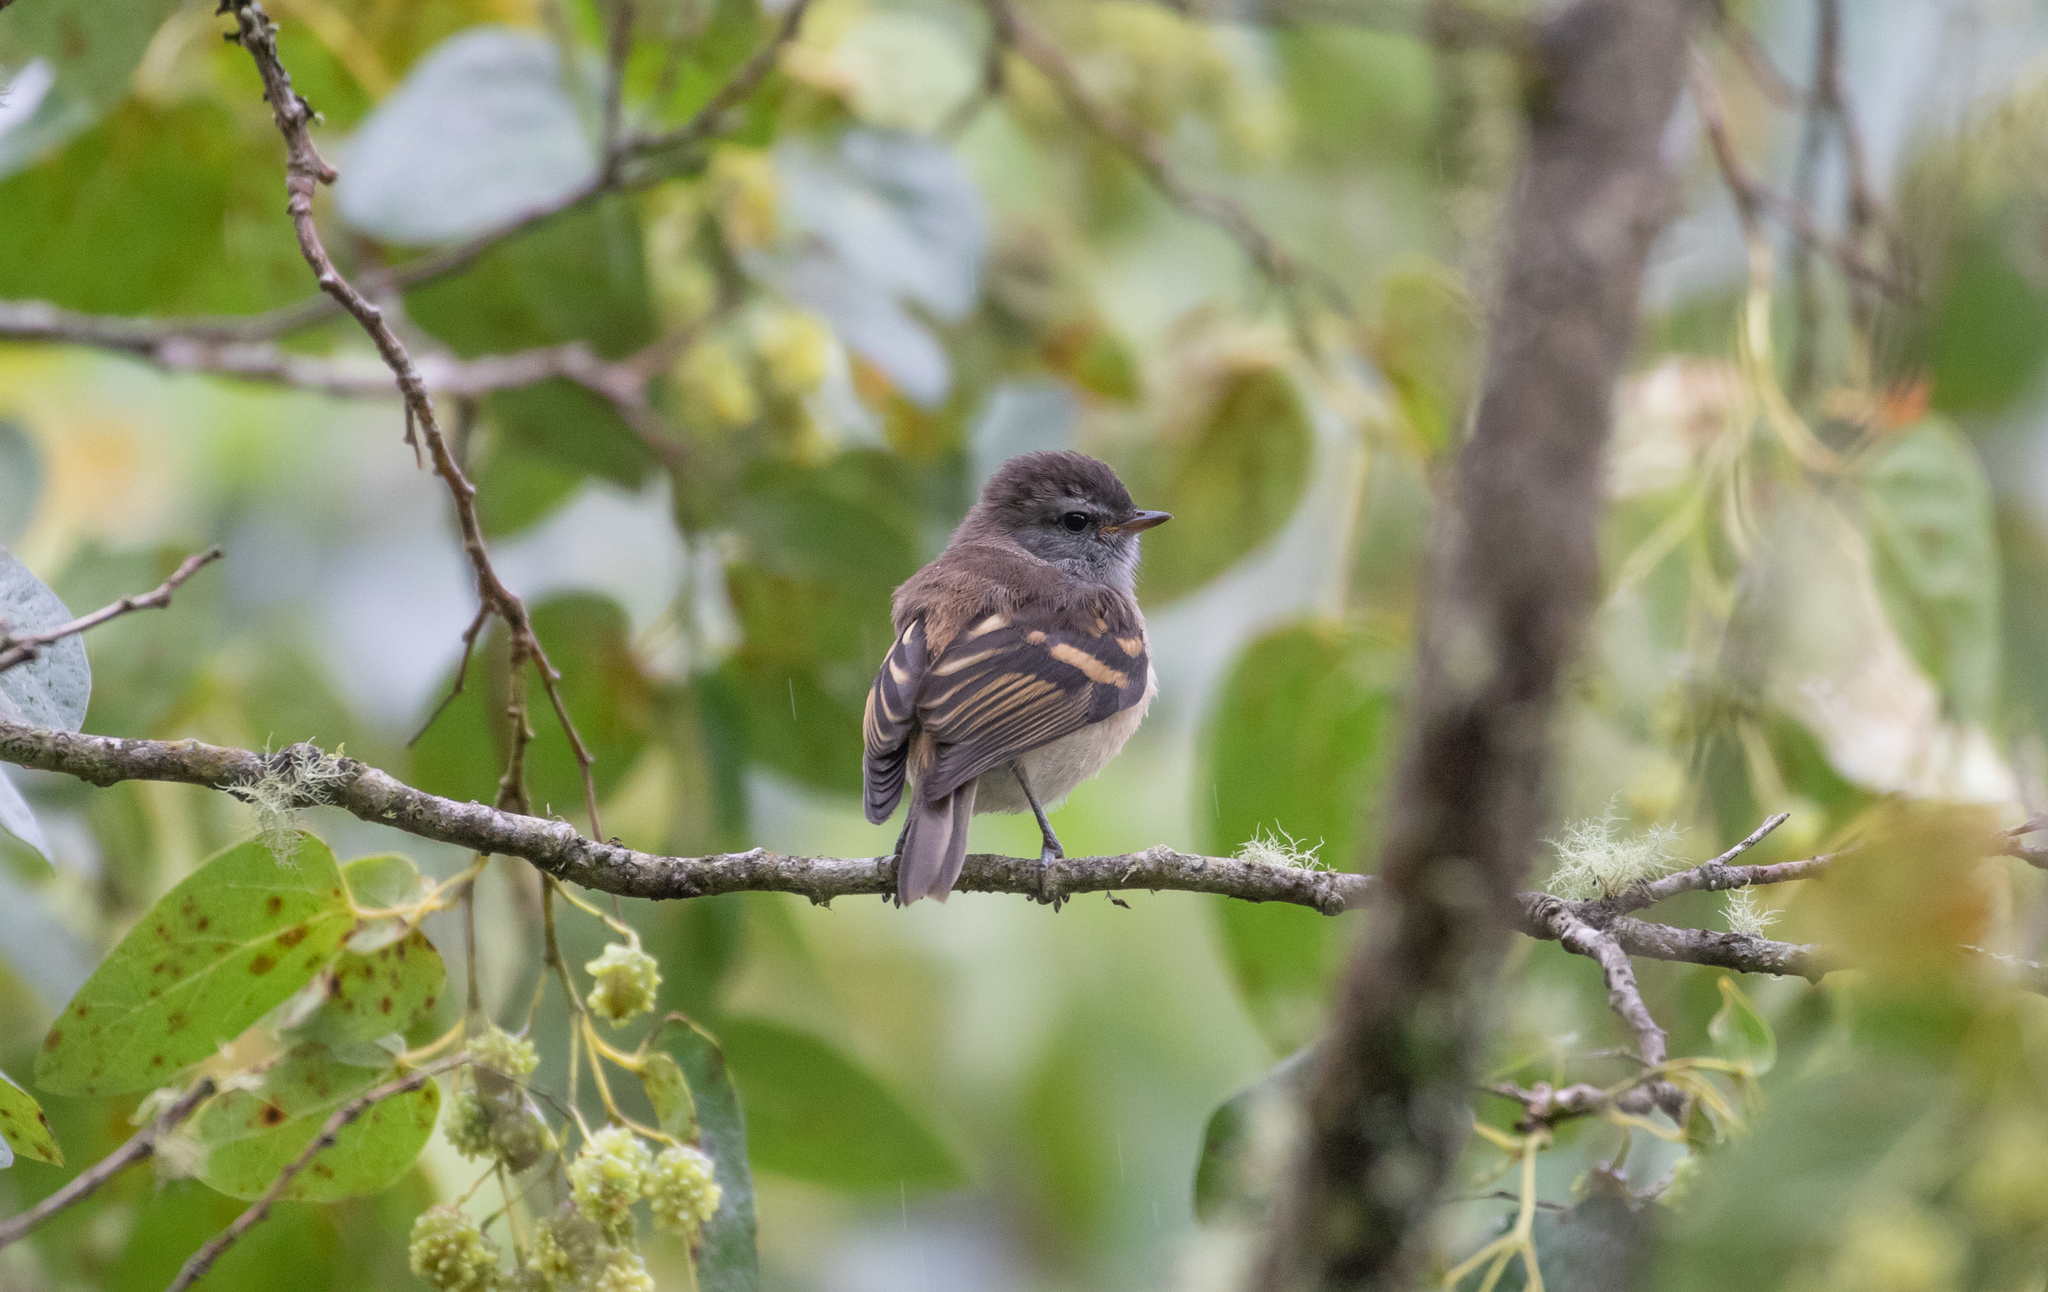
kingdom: Animalia
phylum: Chordata
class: Aves
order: Passeriformes
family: Tyrannidae
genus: Phyllomyias
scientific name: Phyllomyias uropygialis
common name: Tawny-rumped tyrannulet
